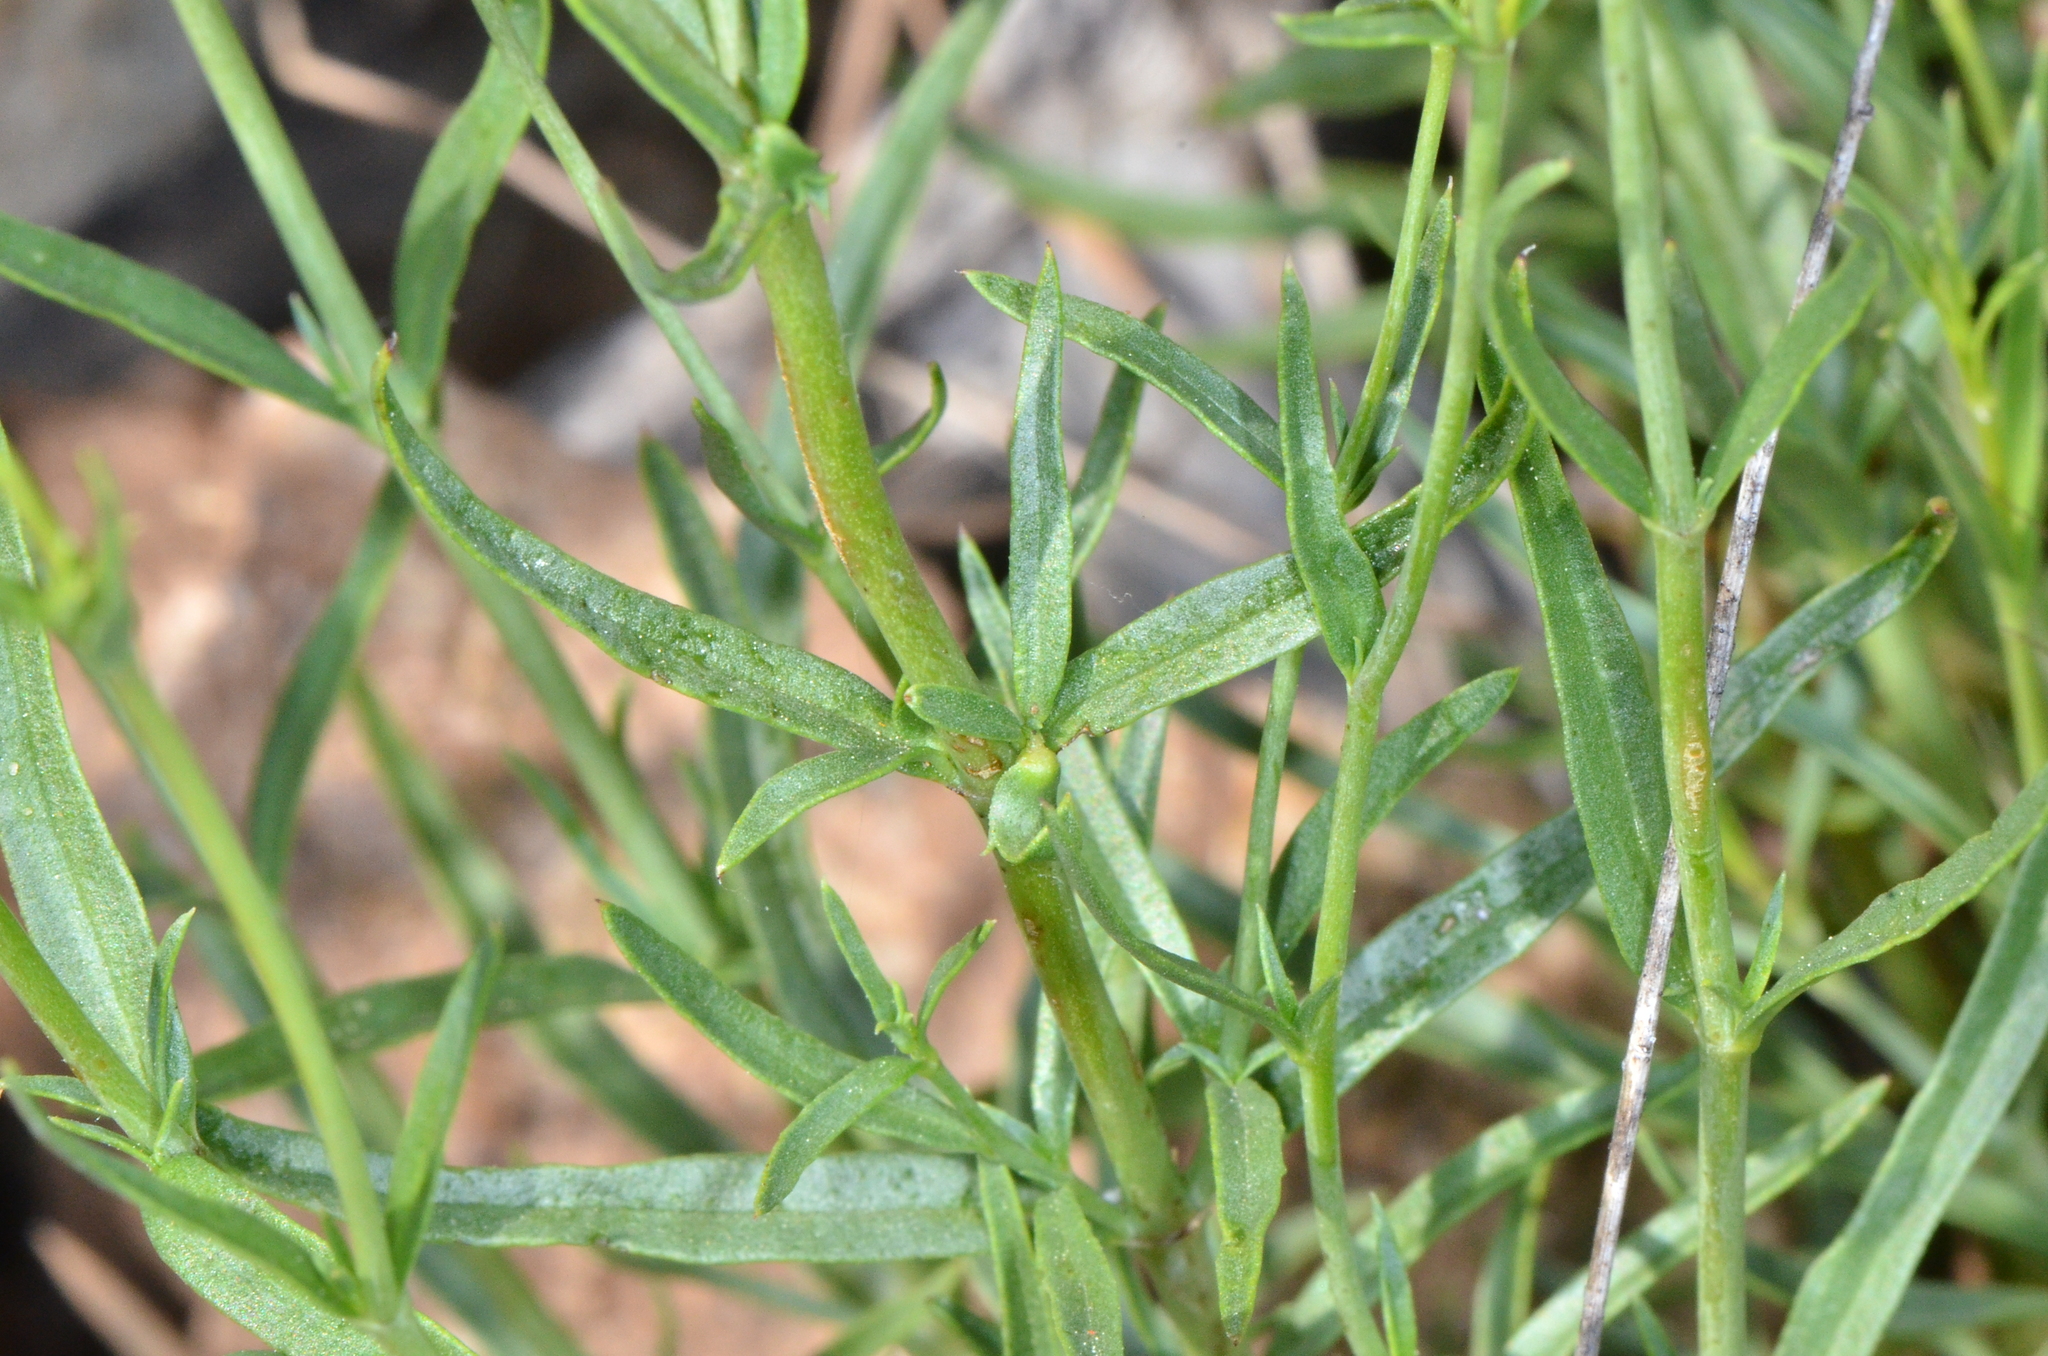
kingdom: Plantae
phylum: Tracheophyta
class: Magnoliopsida
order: Lamiales
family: Plantaginaceae
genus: Penstemon
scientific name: Penstemon heterophyllus
